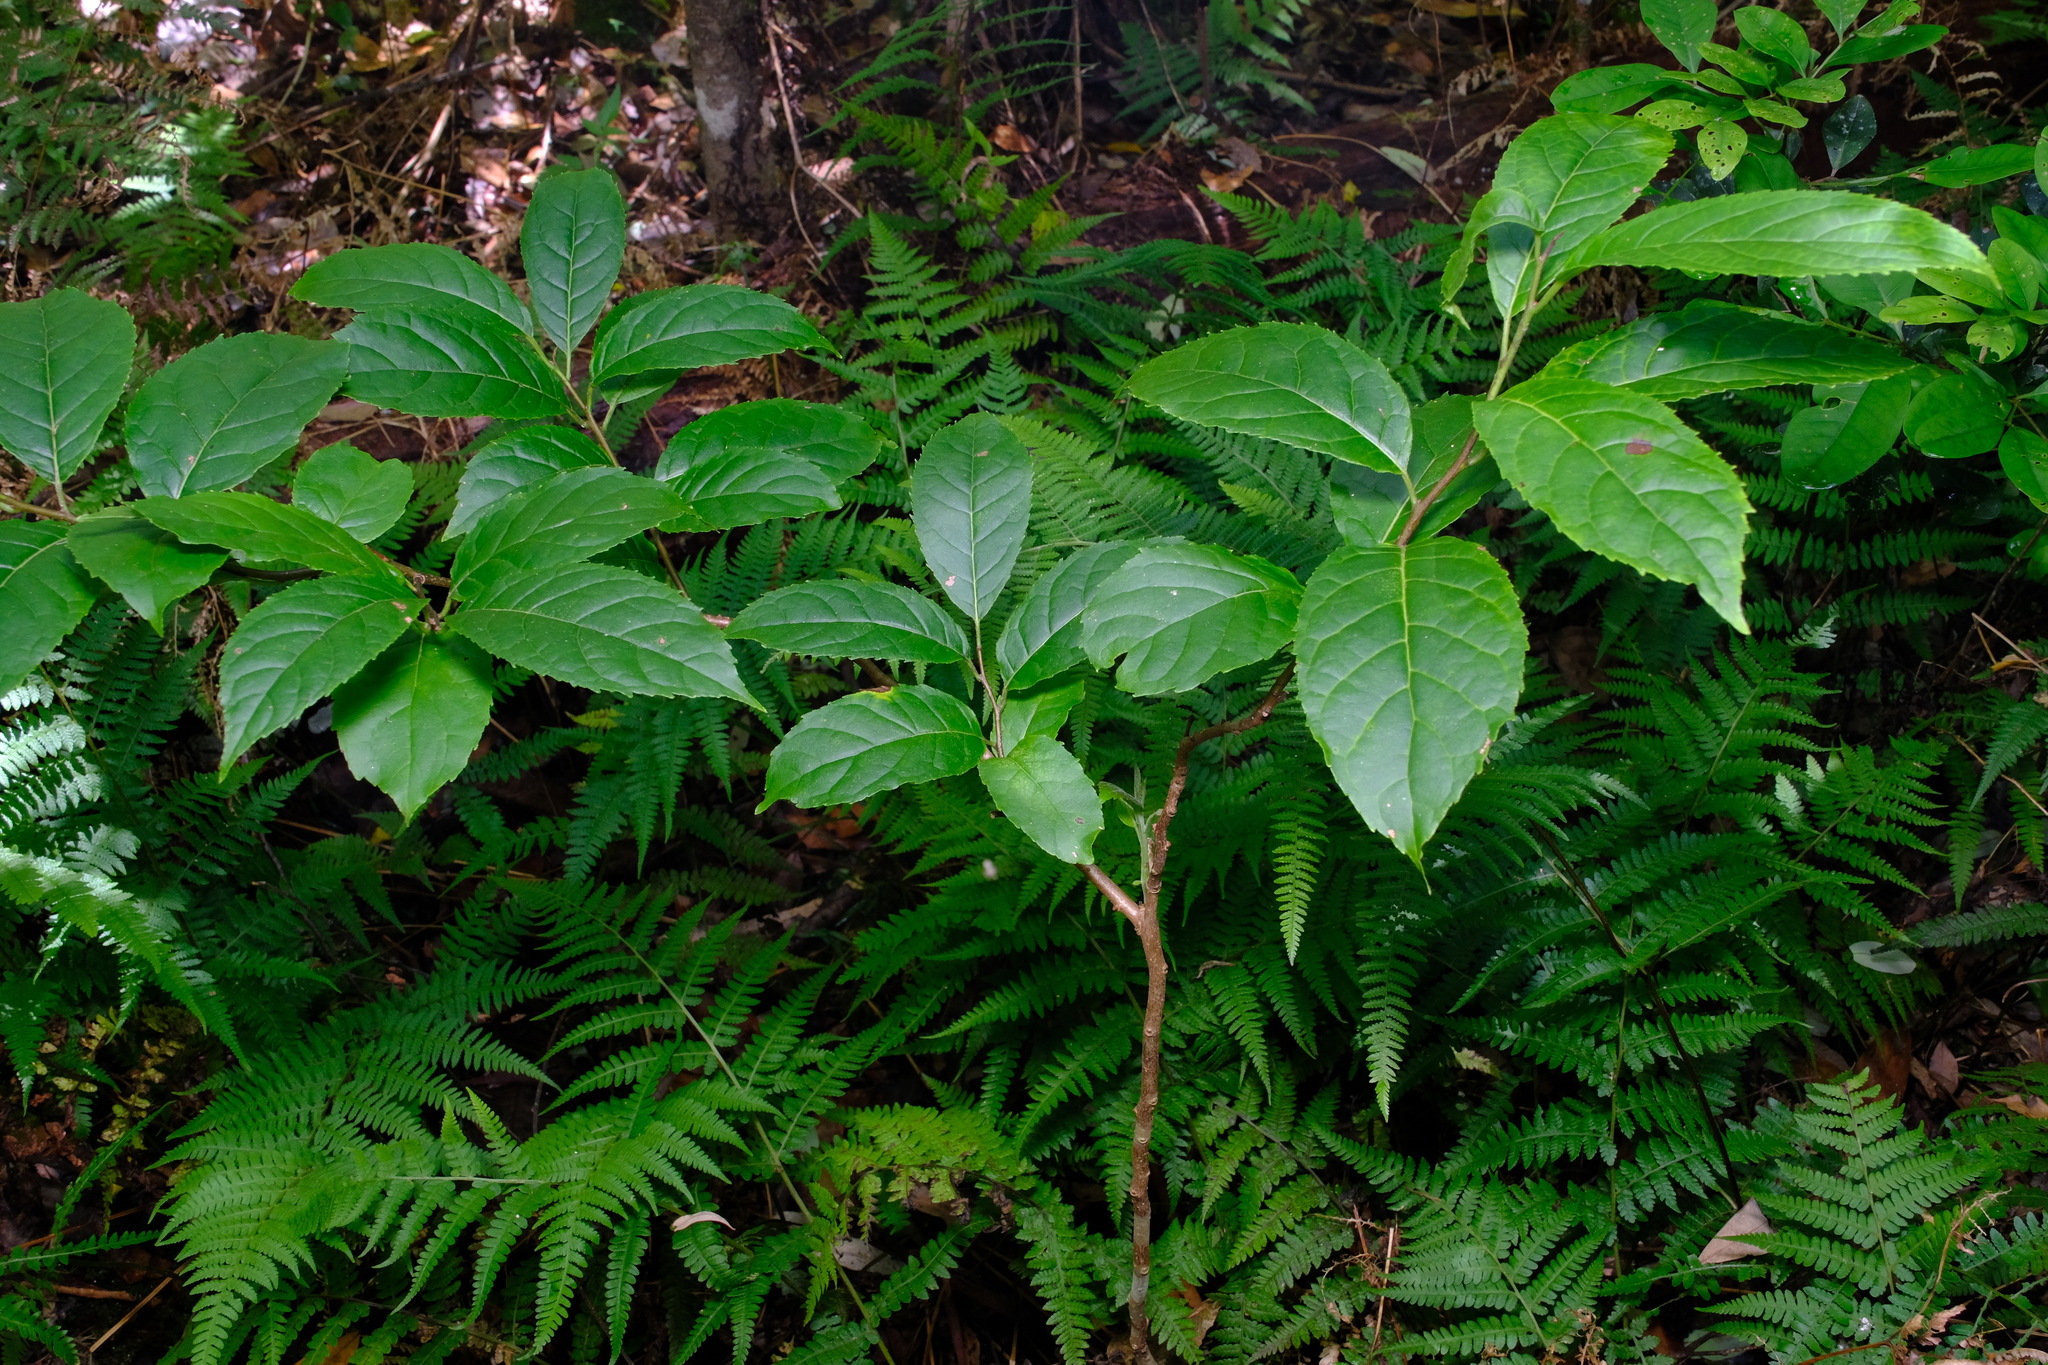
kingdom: Plantae
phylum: Tracheophyta
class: Magnoliopsida
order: Boraginales
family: Ehretiaceae
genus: Ehretia
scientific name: Ehretia acuminata
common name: Kodo wood
